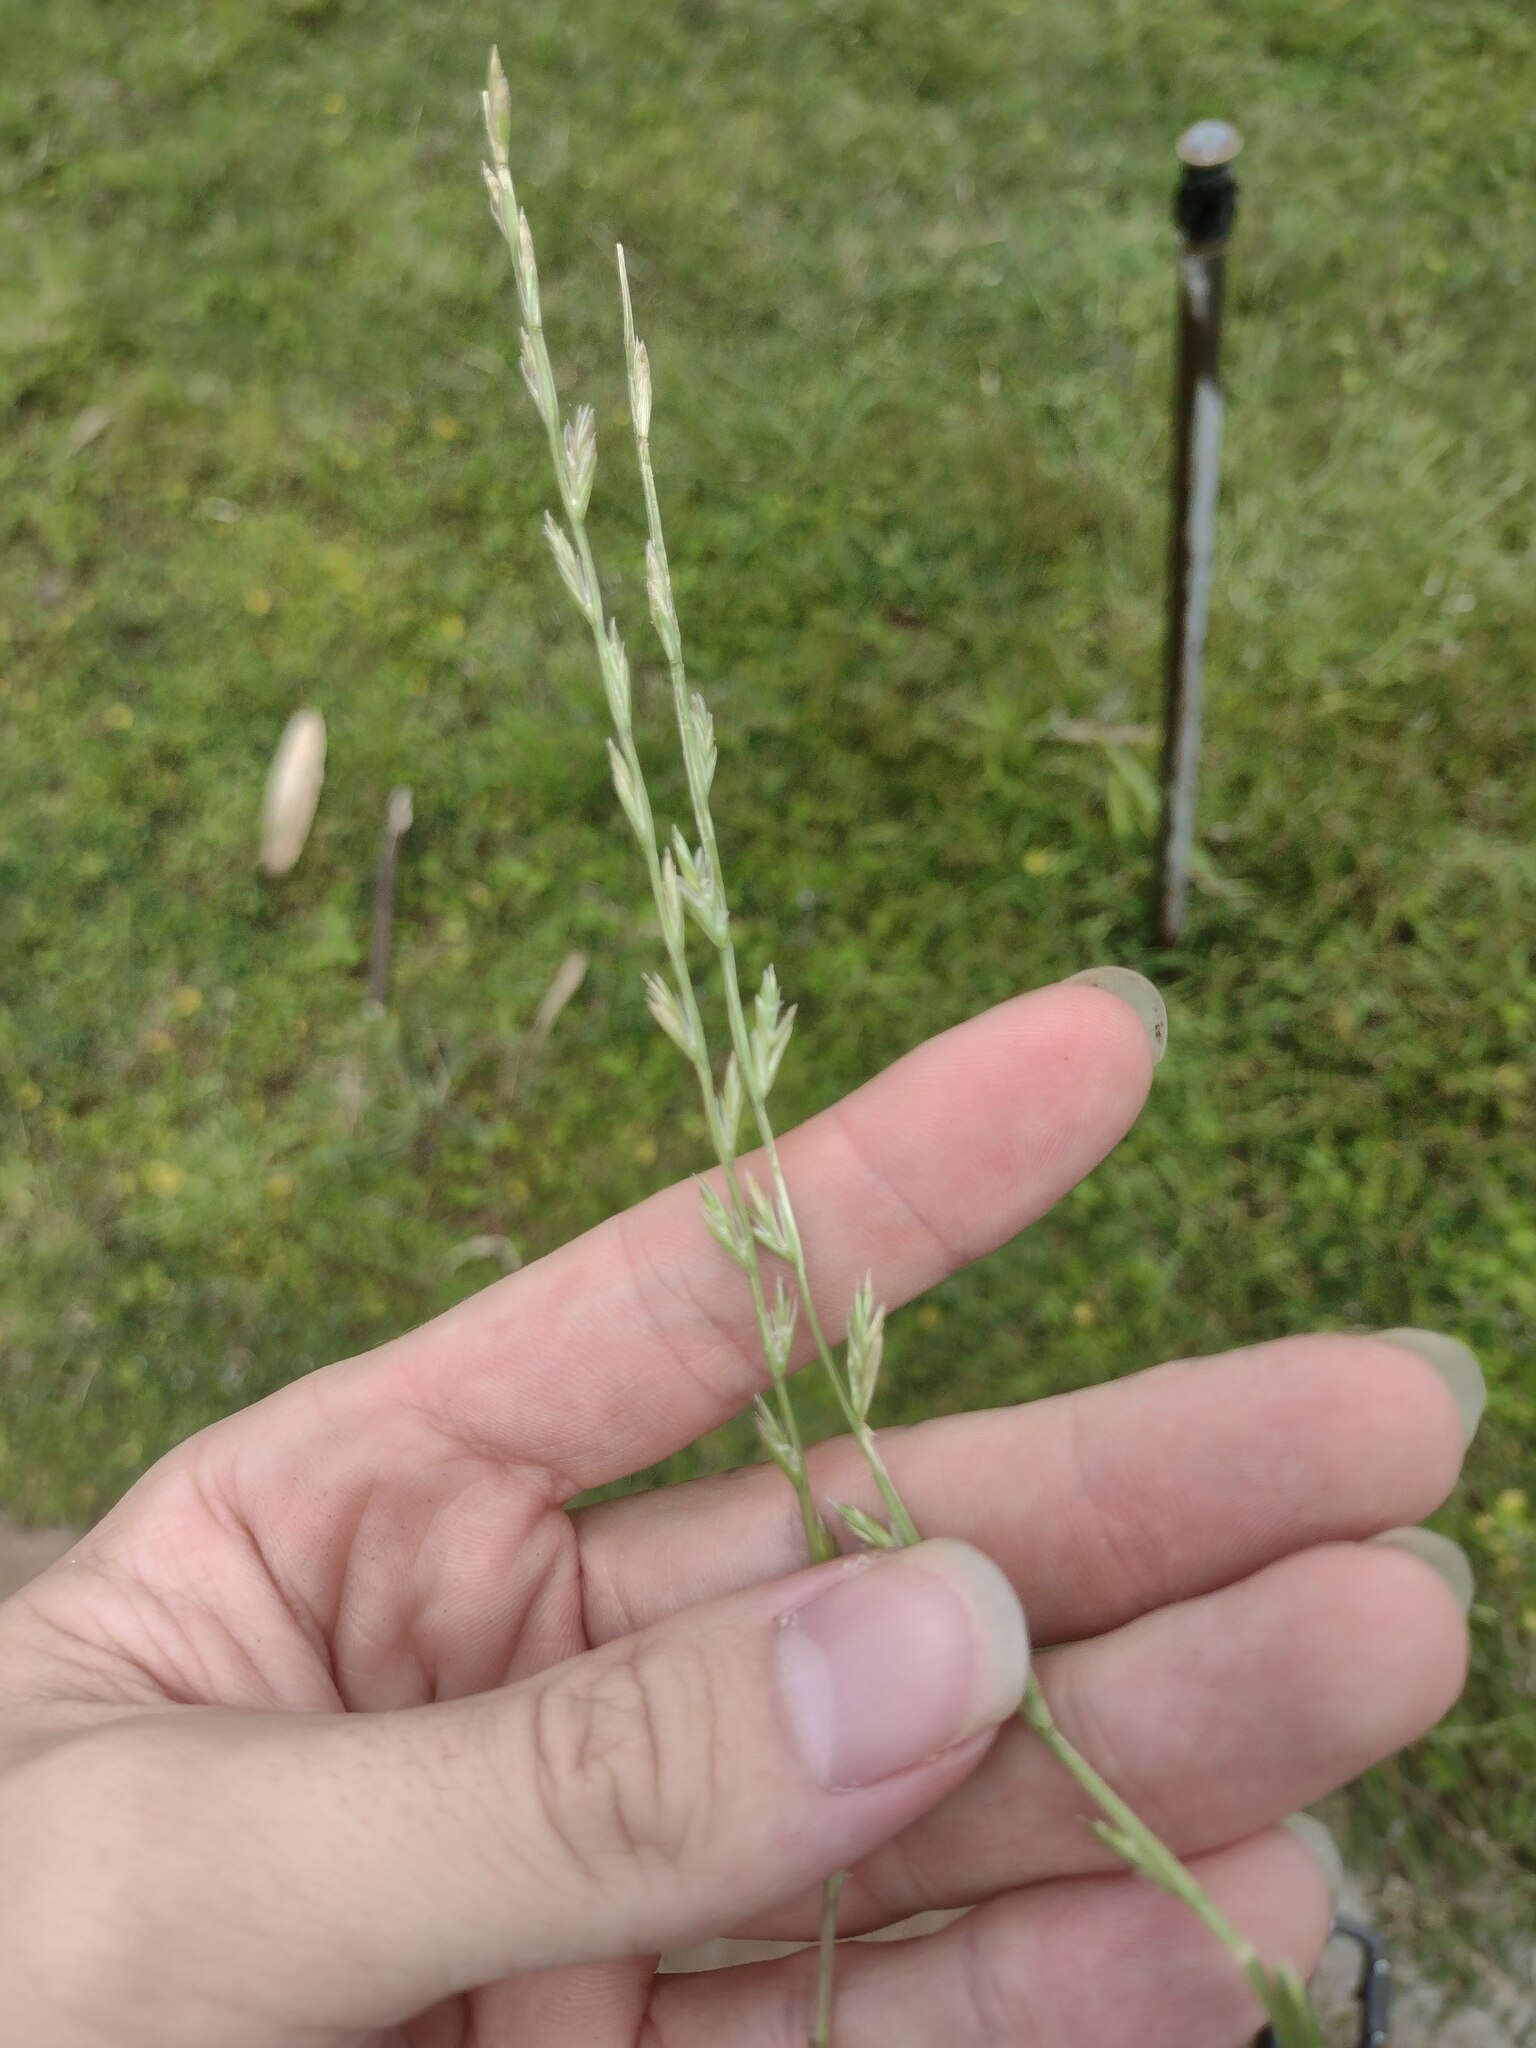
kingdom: Plantae
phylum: Tracheophyta
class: Liliopsida
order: Poales
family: Poaceae
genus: Lolium
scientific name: Lolium perenne
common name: Perennial ryegrass
